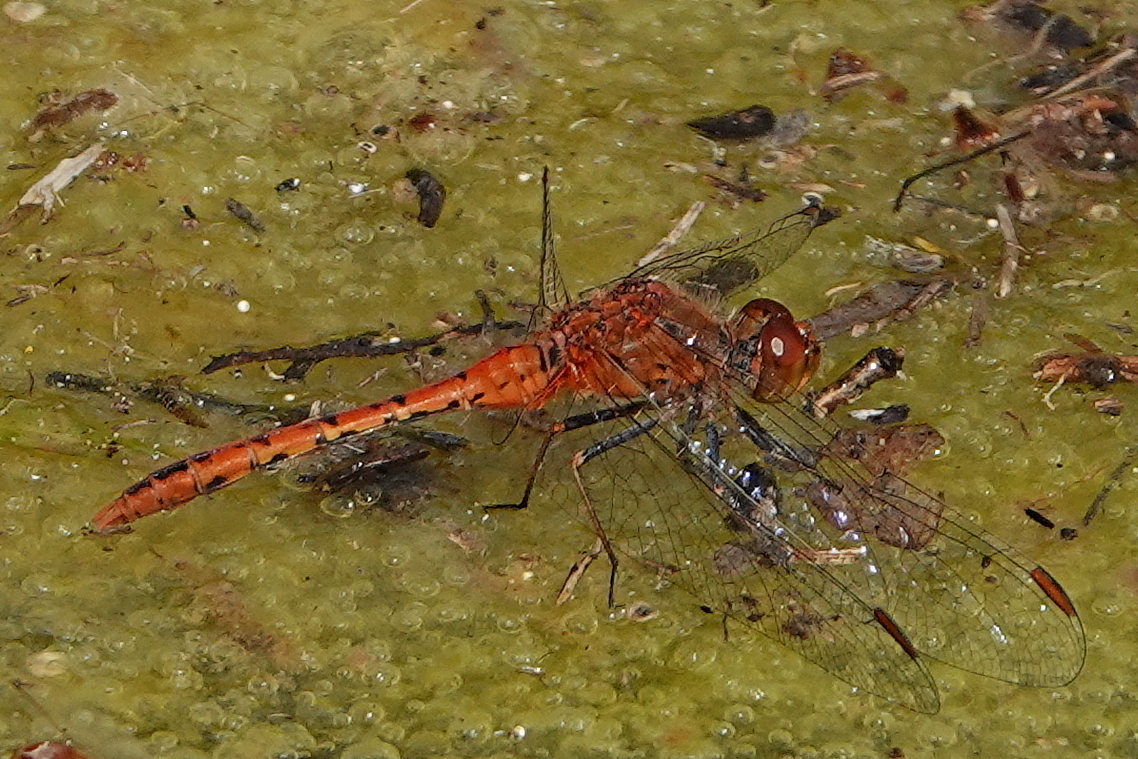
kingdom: Animalia
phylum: Arthropoda
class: Insecta
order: Odonata
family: Libellulidae
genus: Diplacodes
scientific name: Diplacodes bipunctata
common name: Red percher dragonfly
